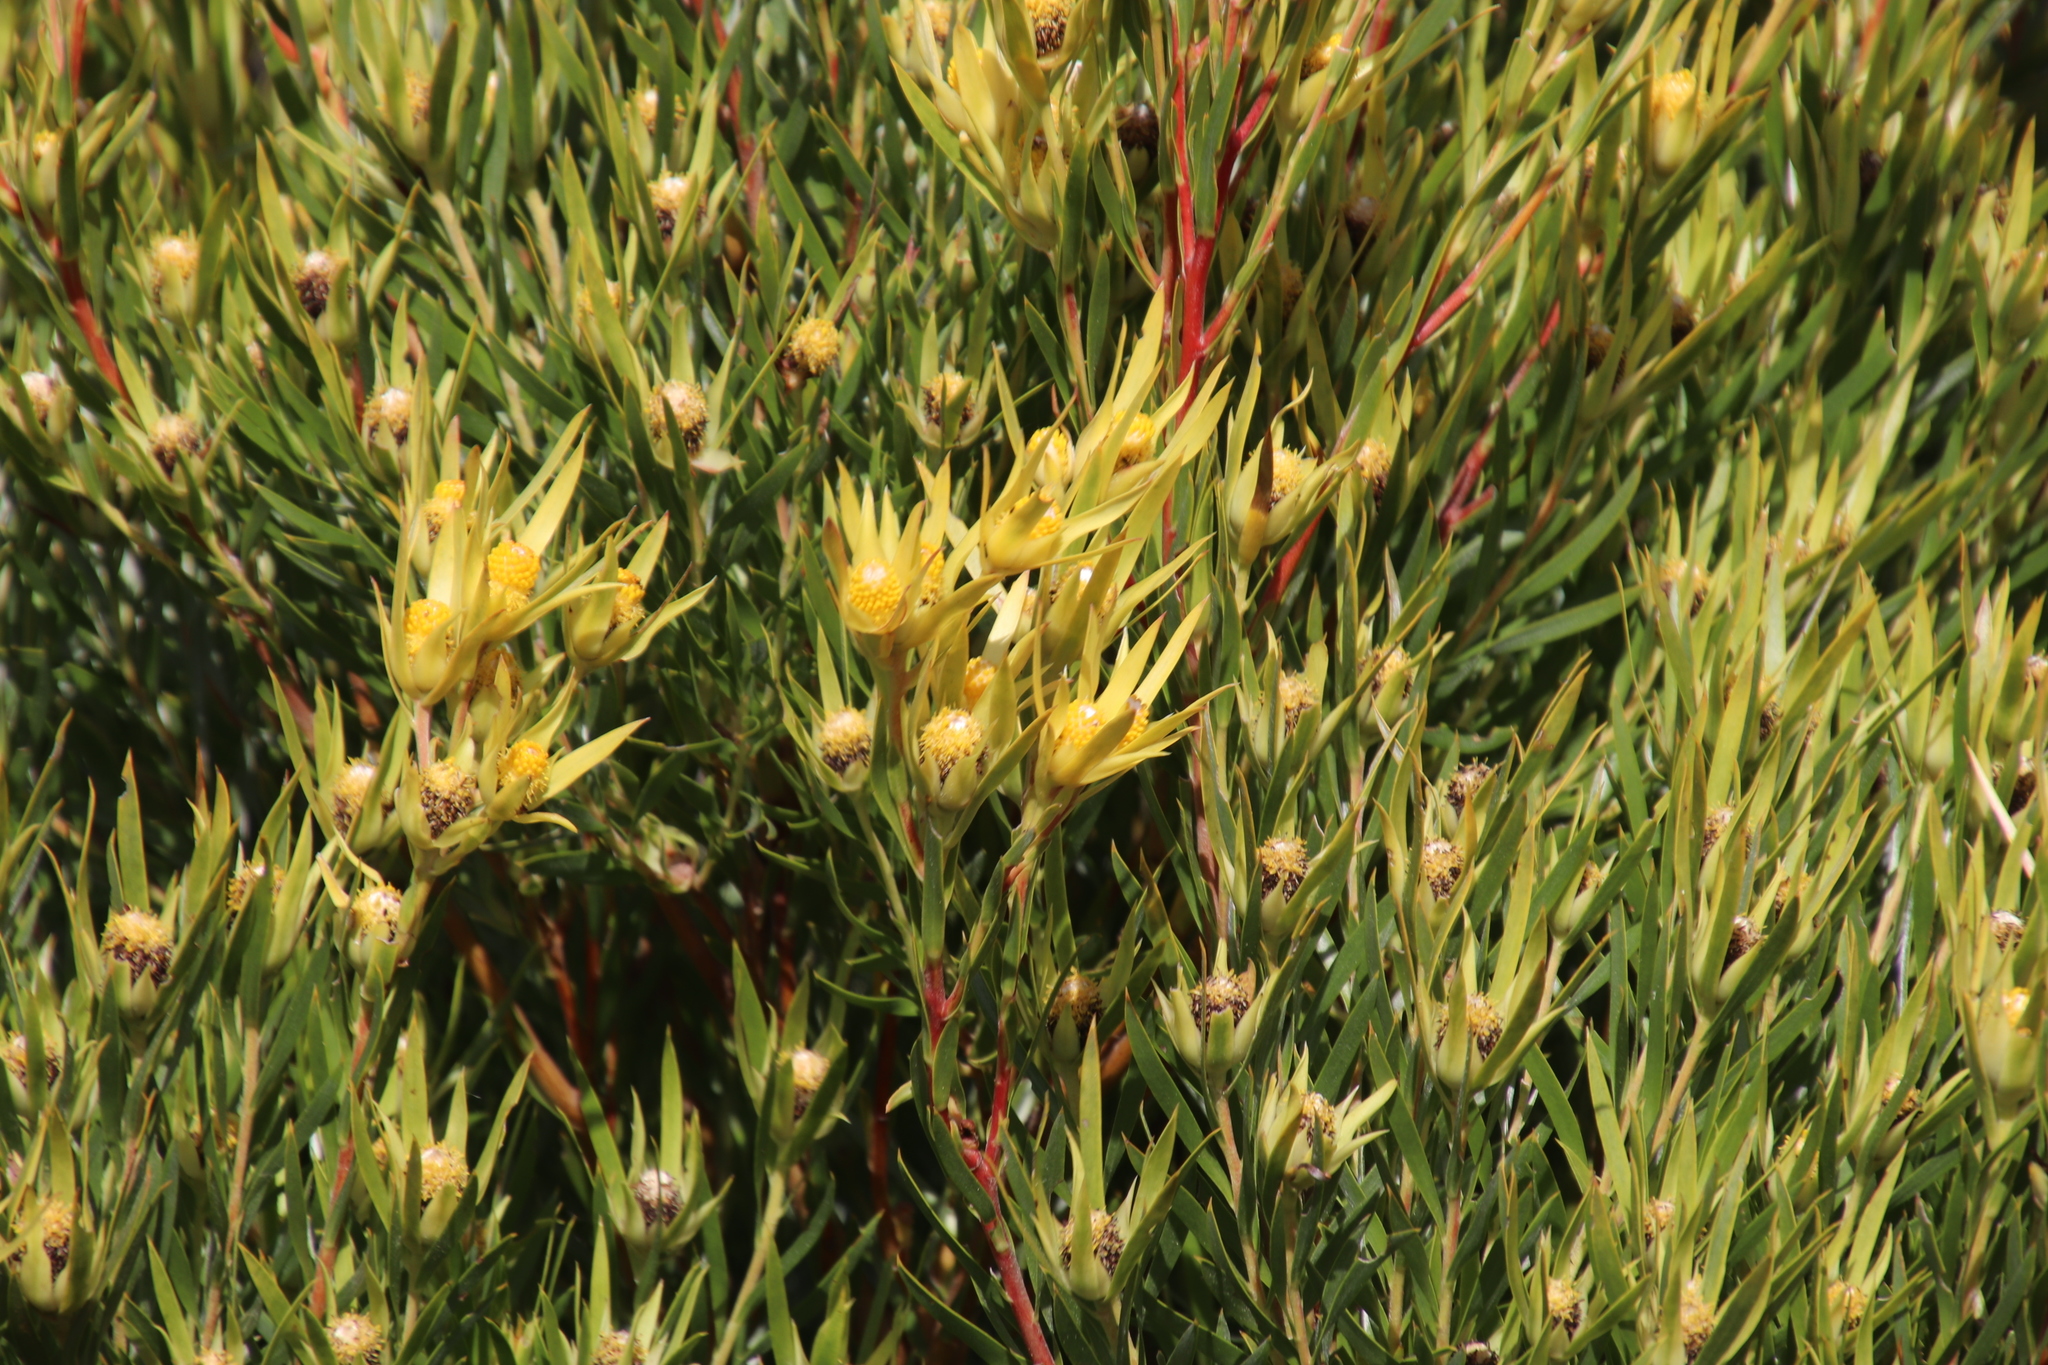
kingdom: Plantae
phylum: Tracheophyta
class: Magnoliopsida
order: Proteales
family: Proteaceae
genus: Leucadendron
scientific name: Leucadendron xanthoconus
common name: Sickle-leaf conebush
